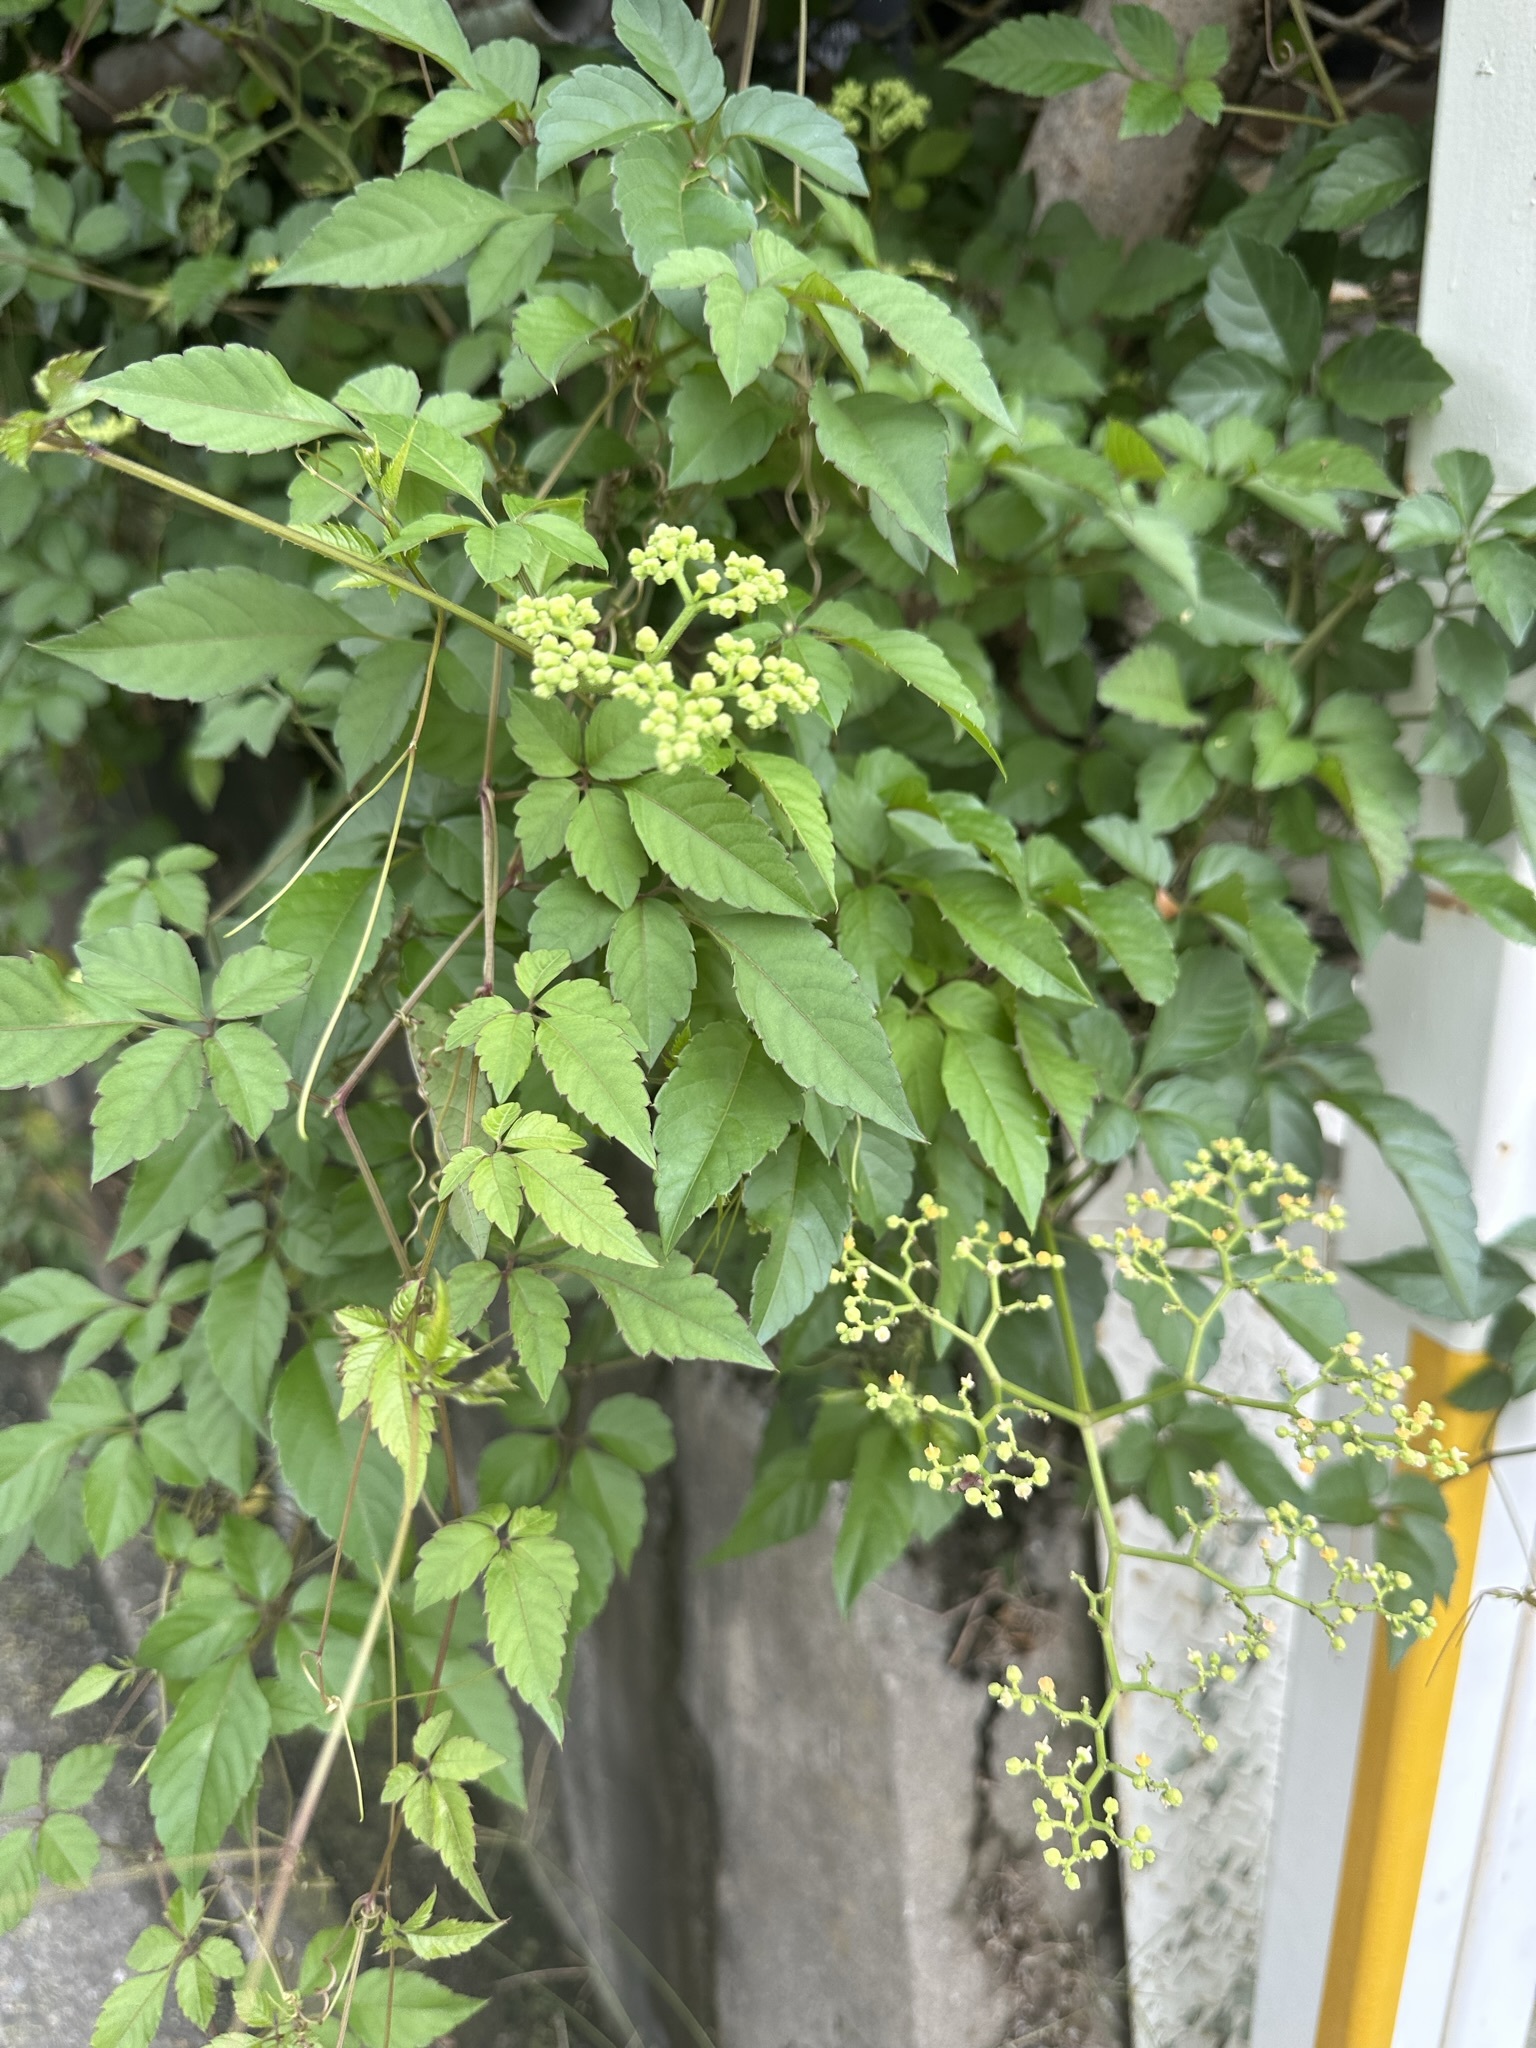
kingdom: Plantae
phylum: Tracheophyta
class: Magnoliopsida
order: Vitales
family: Vitaceae
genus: Causonis
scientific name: Causonis japonica
